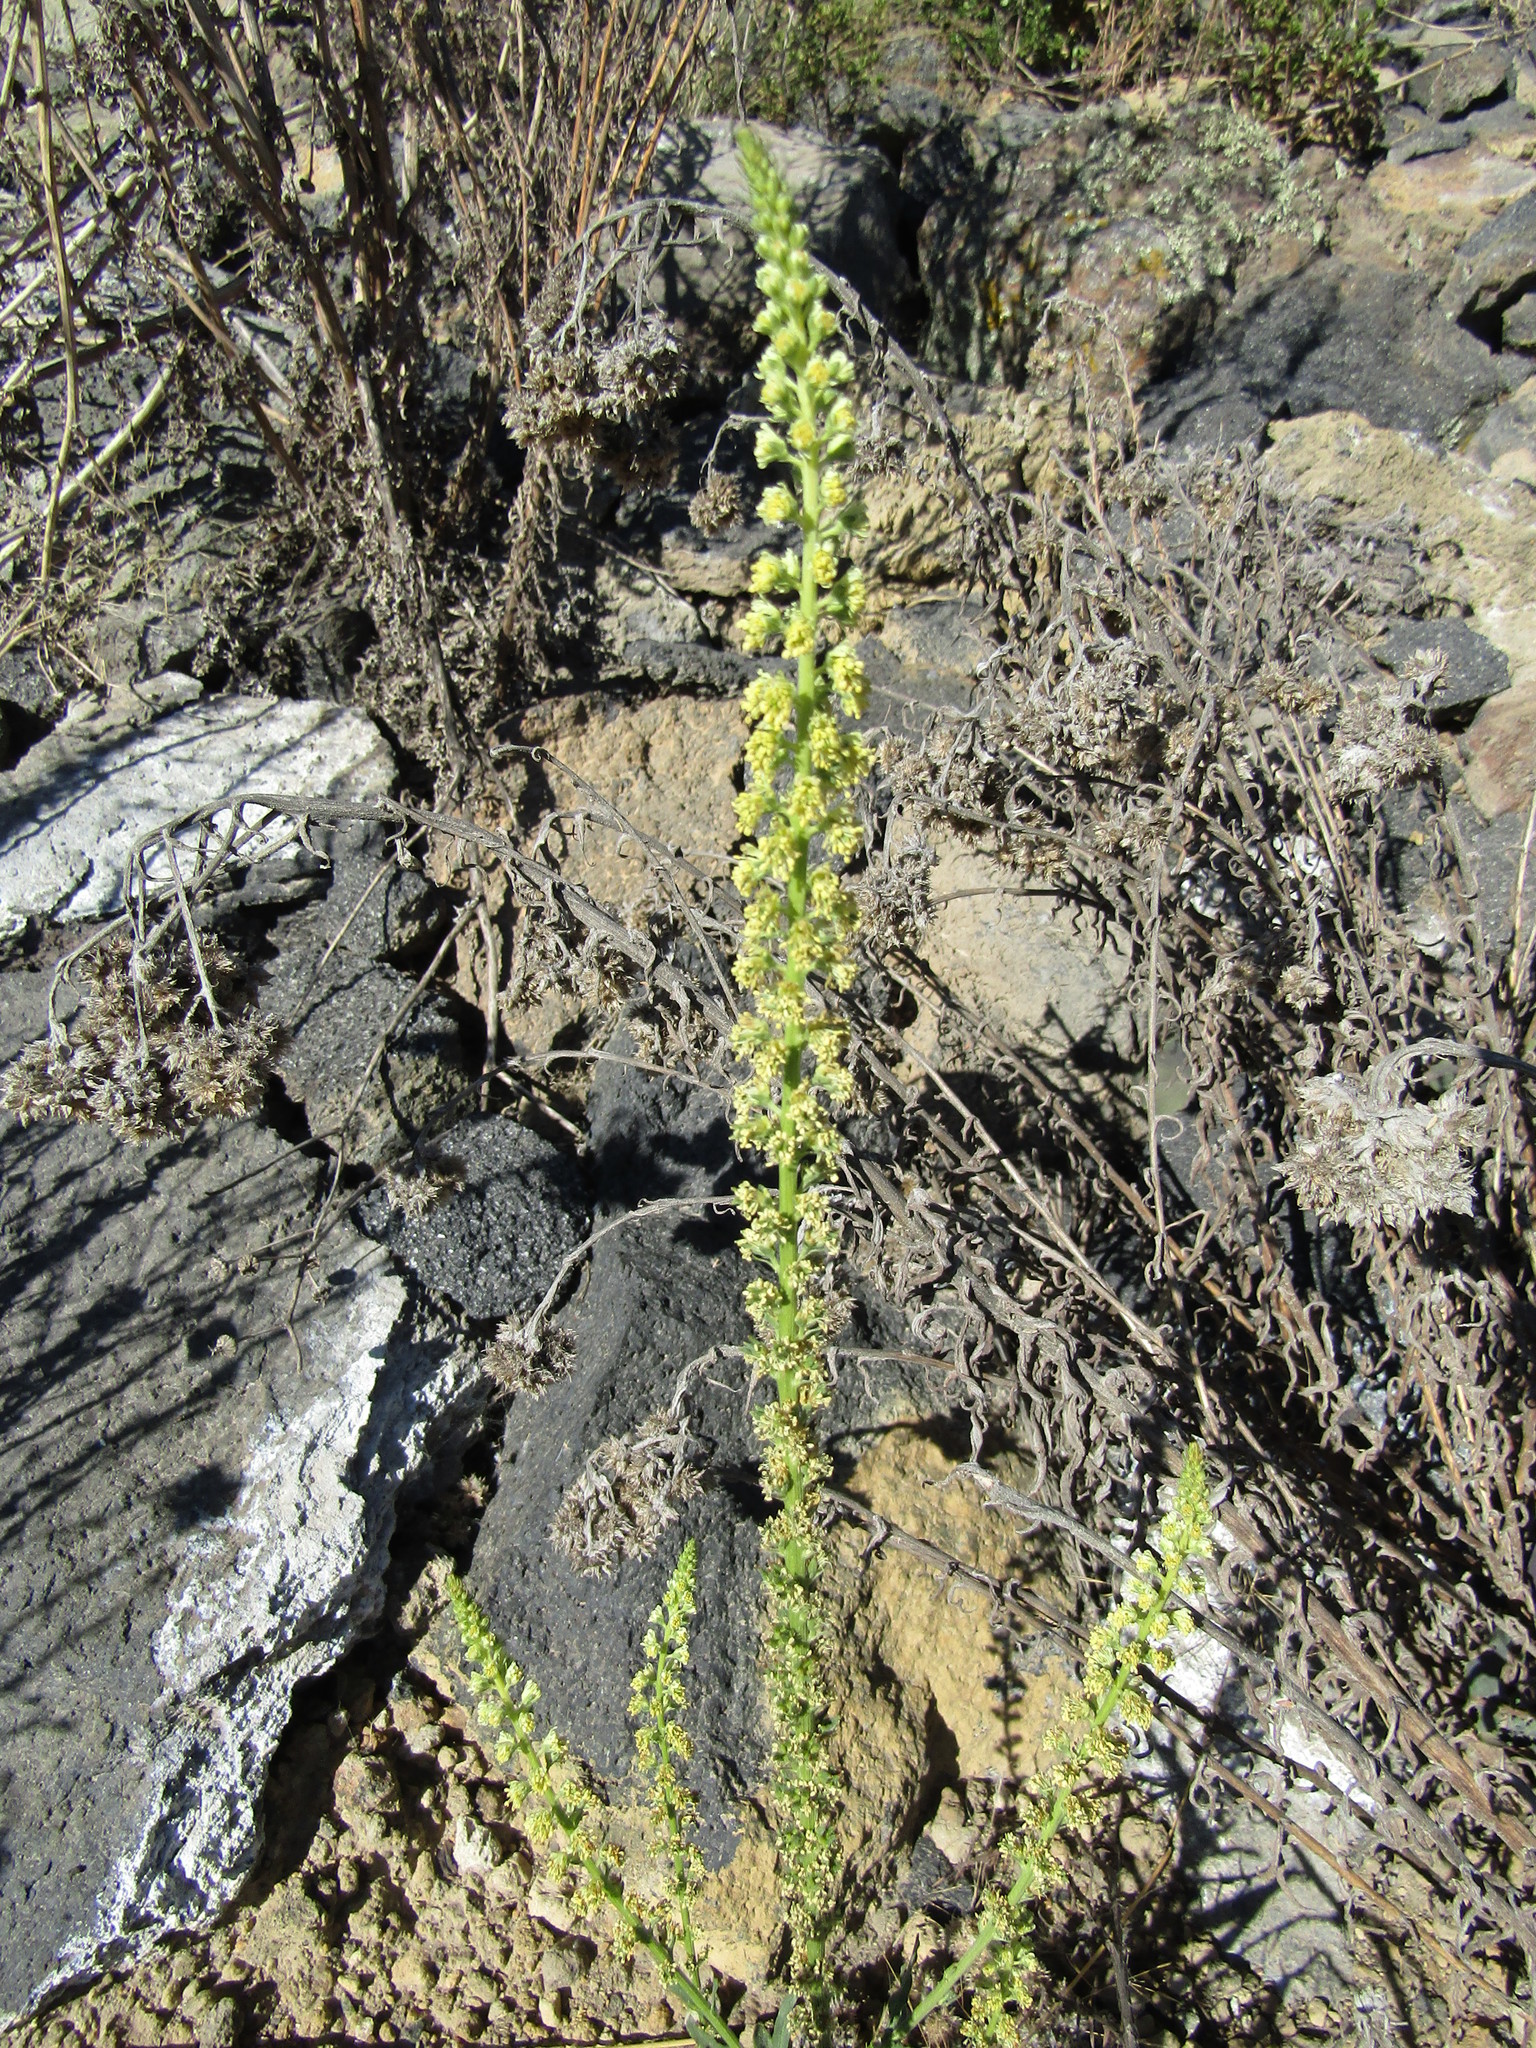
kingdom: Plantae
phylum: Tracheophyta
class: Magnoliopsida
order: Brassicales
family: Resedaceae
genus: Reseda
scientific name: Reseda luteola
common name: Weld
